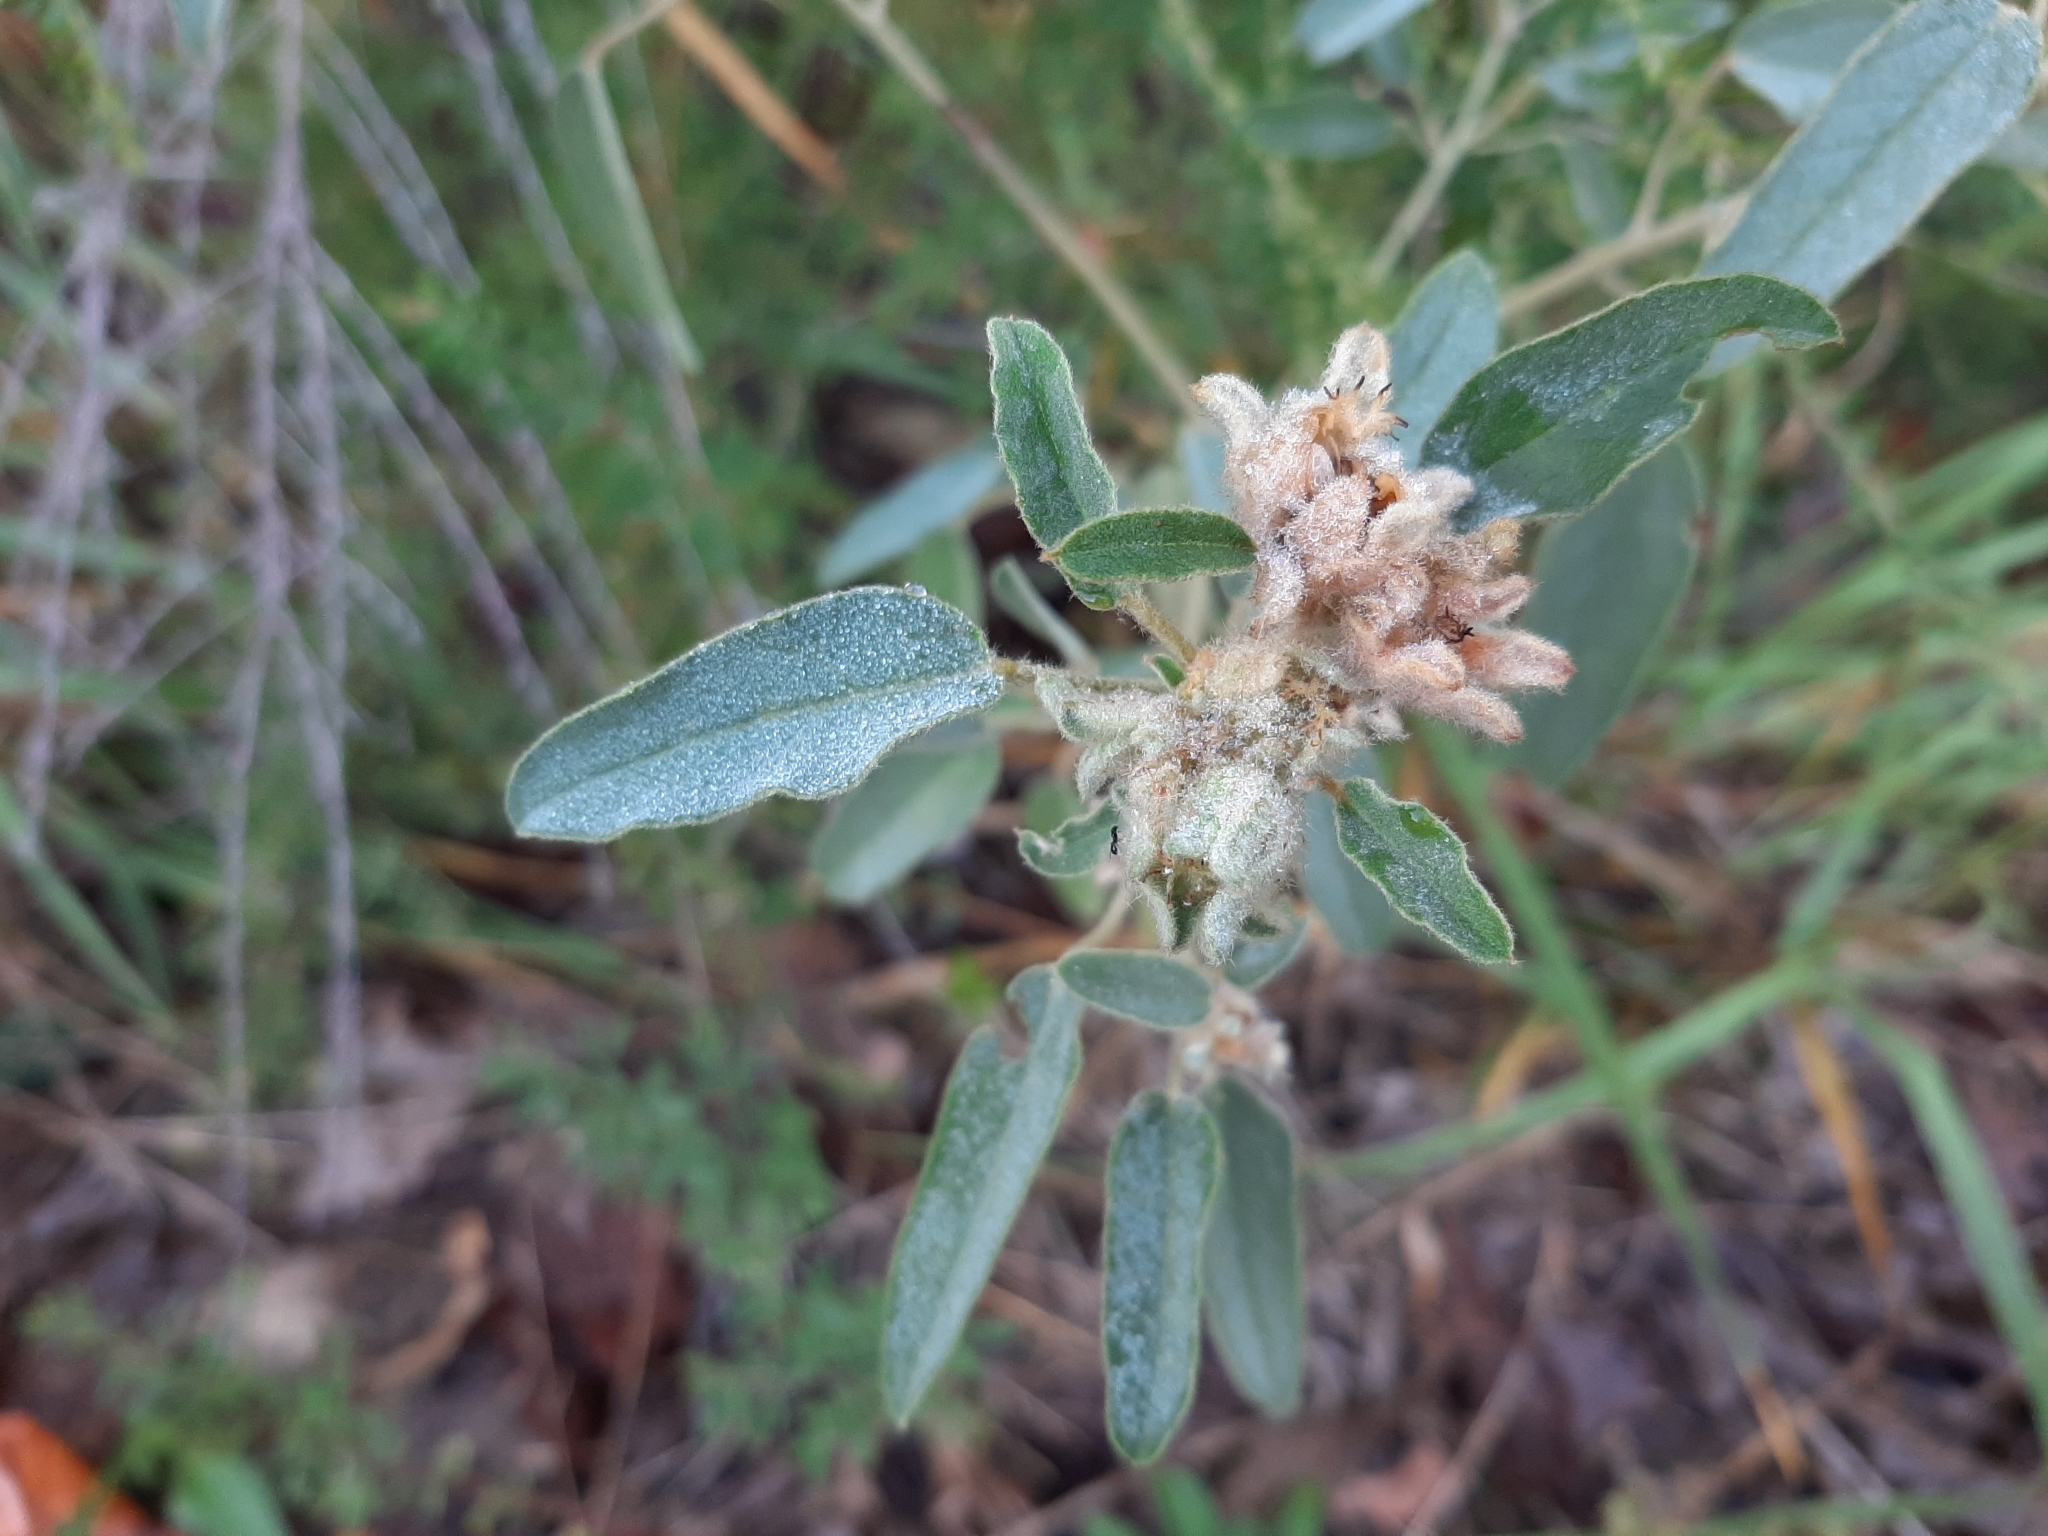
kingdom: Plantae
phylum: Tracheophyta
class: Magnoliopsida
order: Malpighiales
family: Euphorbiaceae
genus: Croton
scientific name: Croton capitatus
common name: Woolly croton
